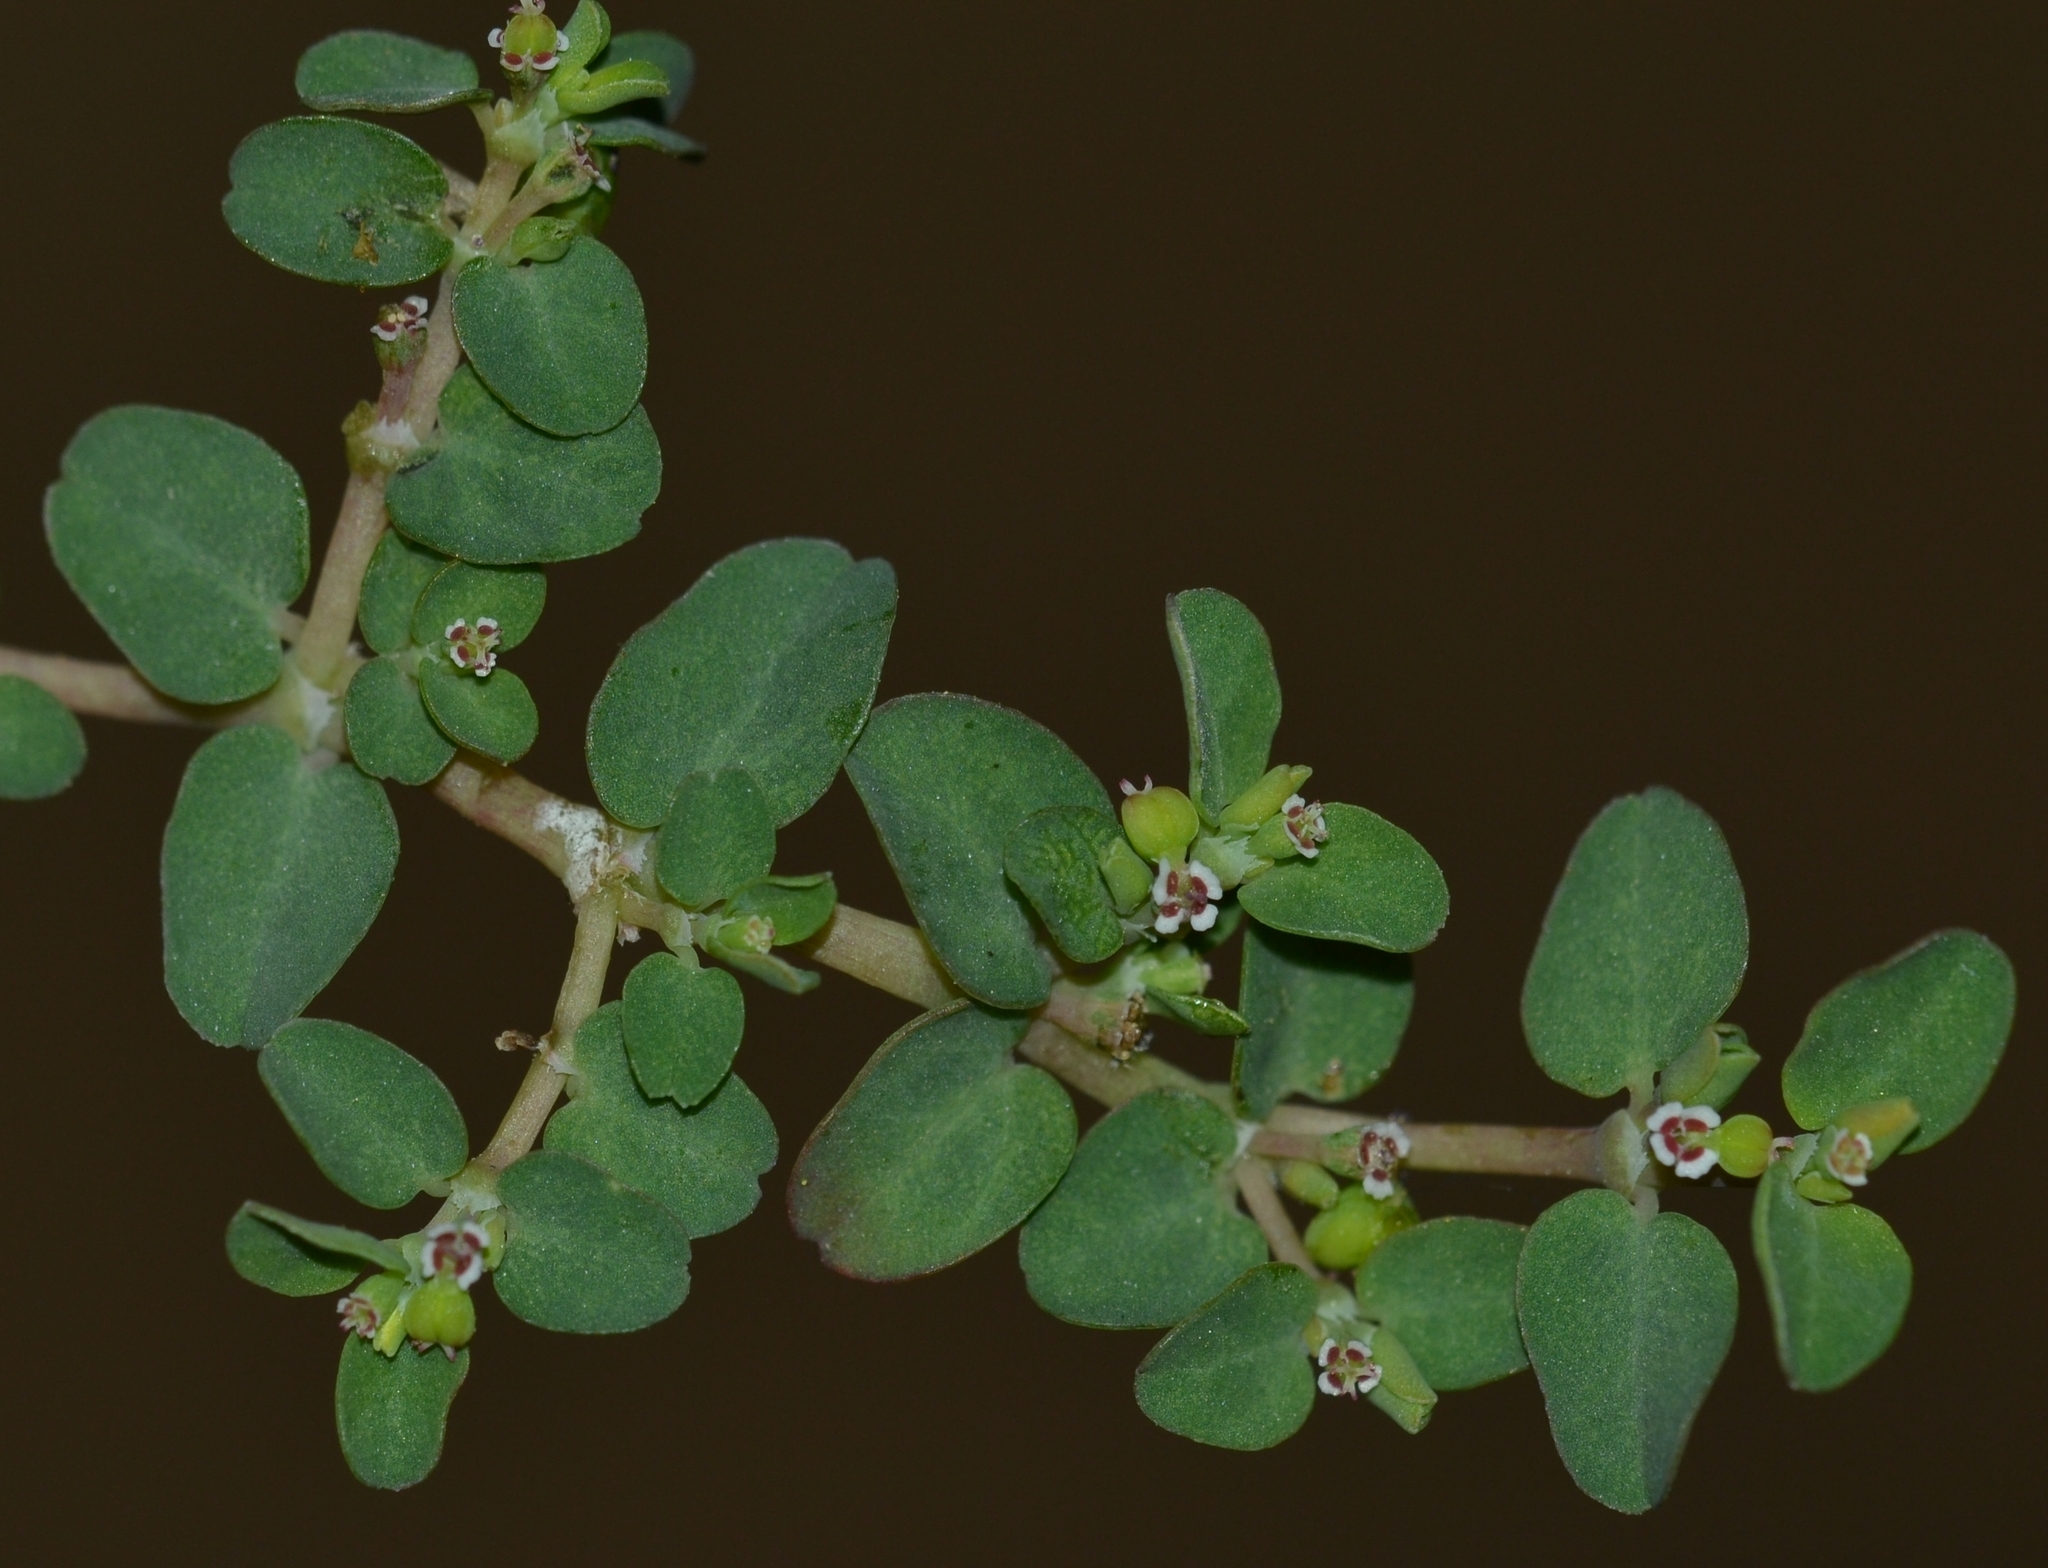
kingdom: Plantae
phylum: Tracheophyta
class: Magnoliopsida
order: Malpighiales
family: Euphorbiaceae
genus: Euphorbia
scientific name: Euphorbia serpens
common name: Matted sandmat
